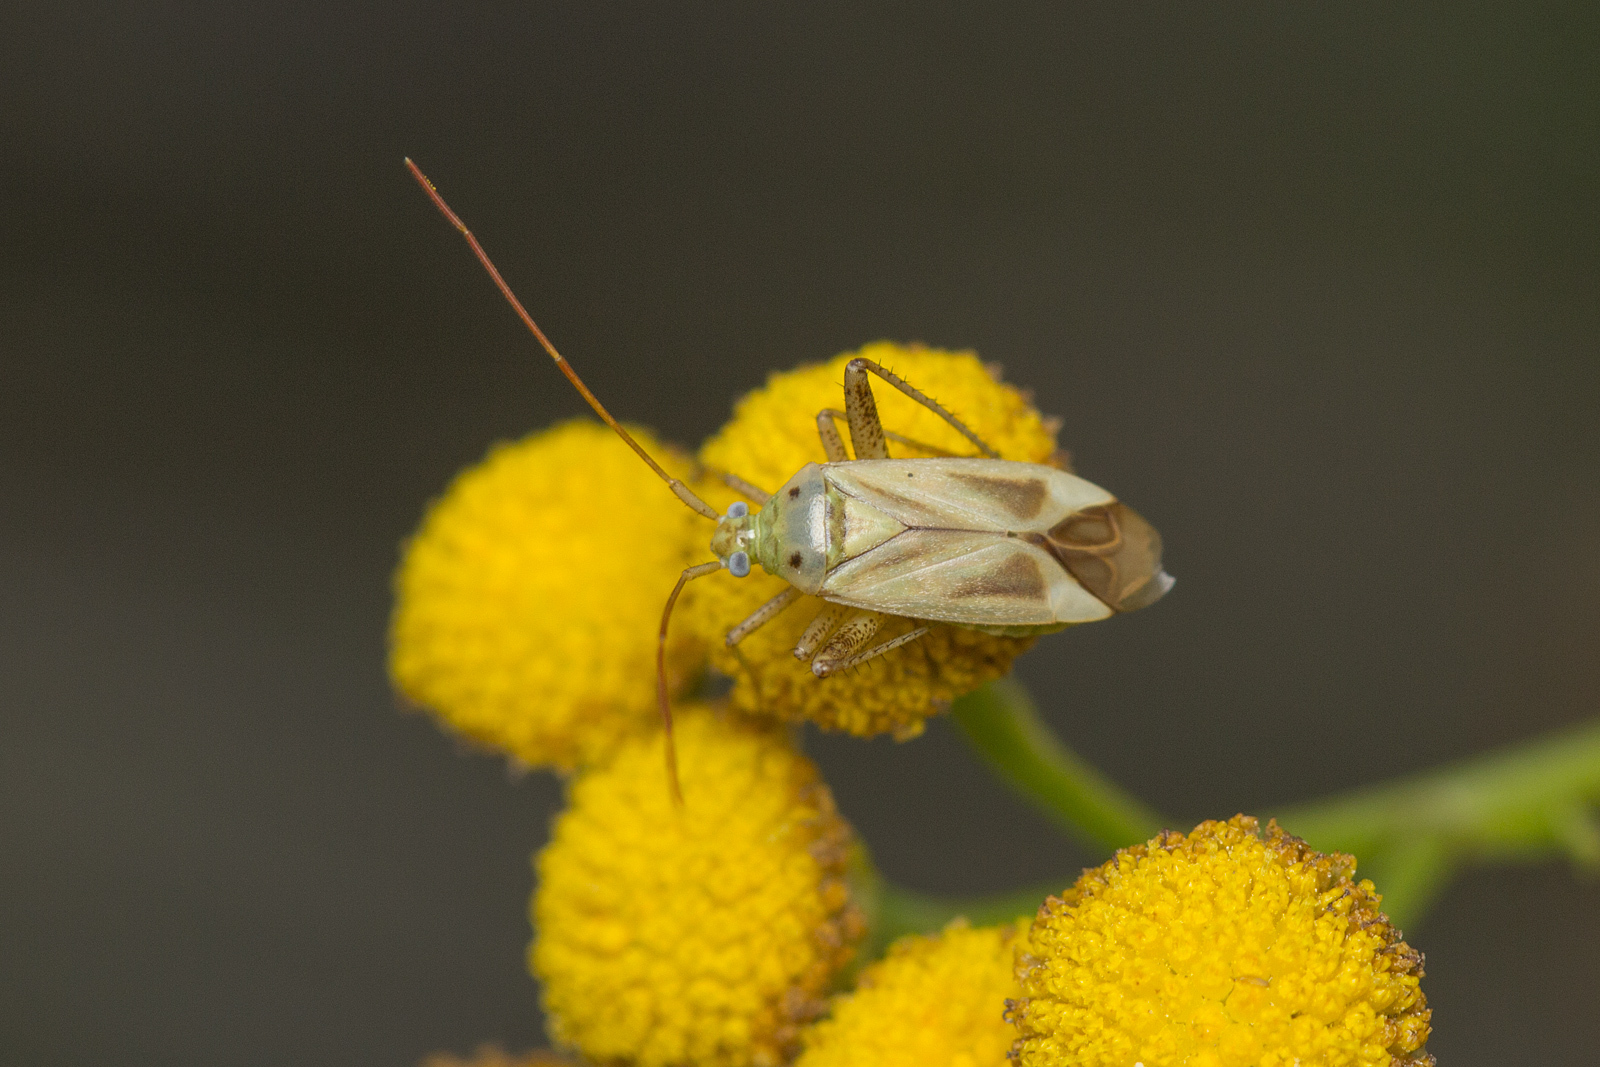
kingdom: Animalia
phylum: Arthropoda
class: Insecta
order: Hemiptera
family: Miridae
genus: Adelphocoris
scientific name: Adelphocoris lineolatus
